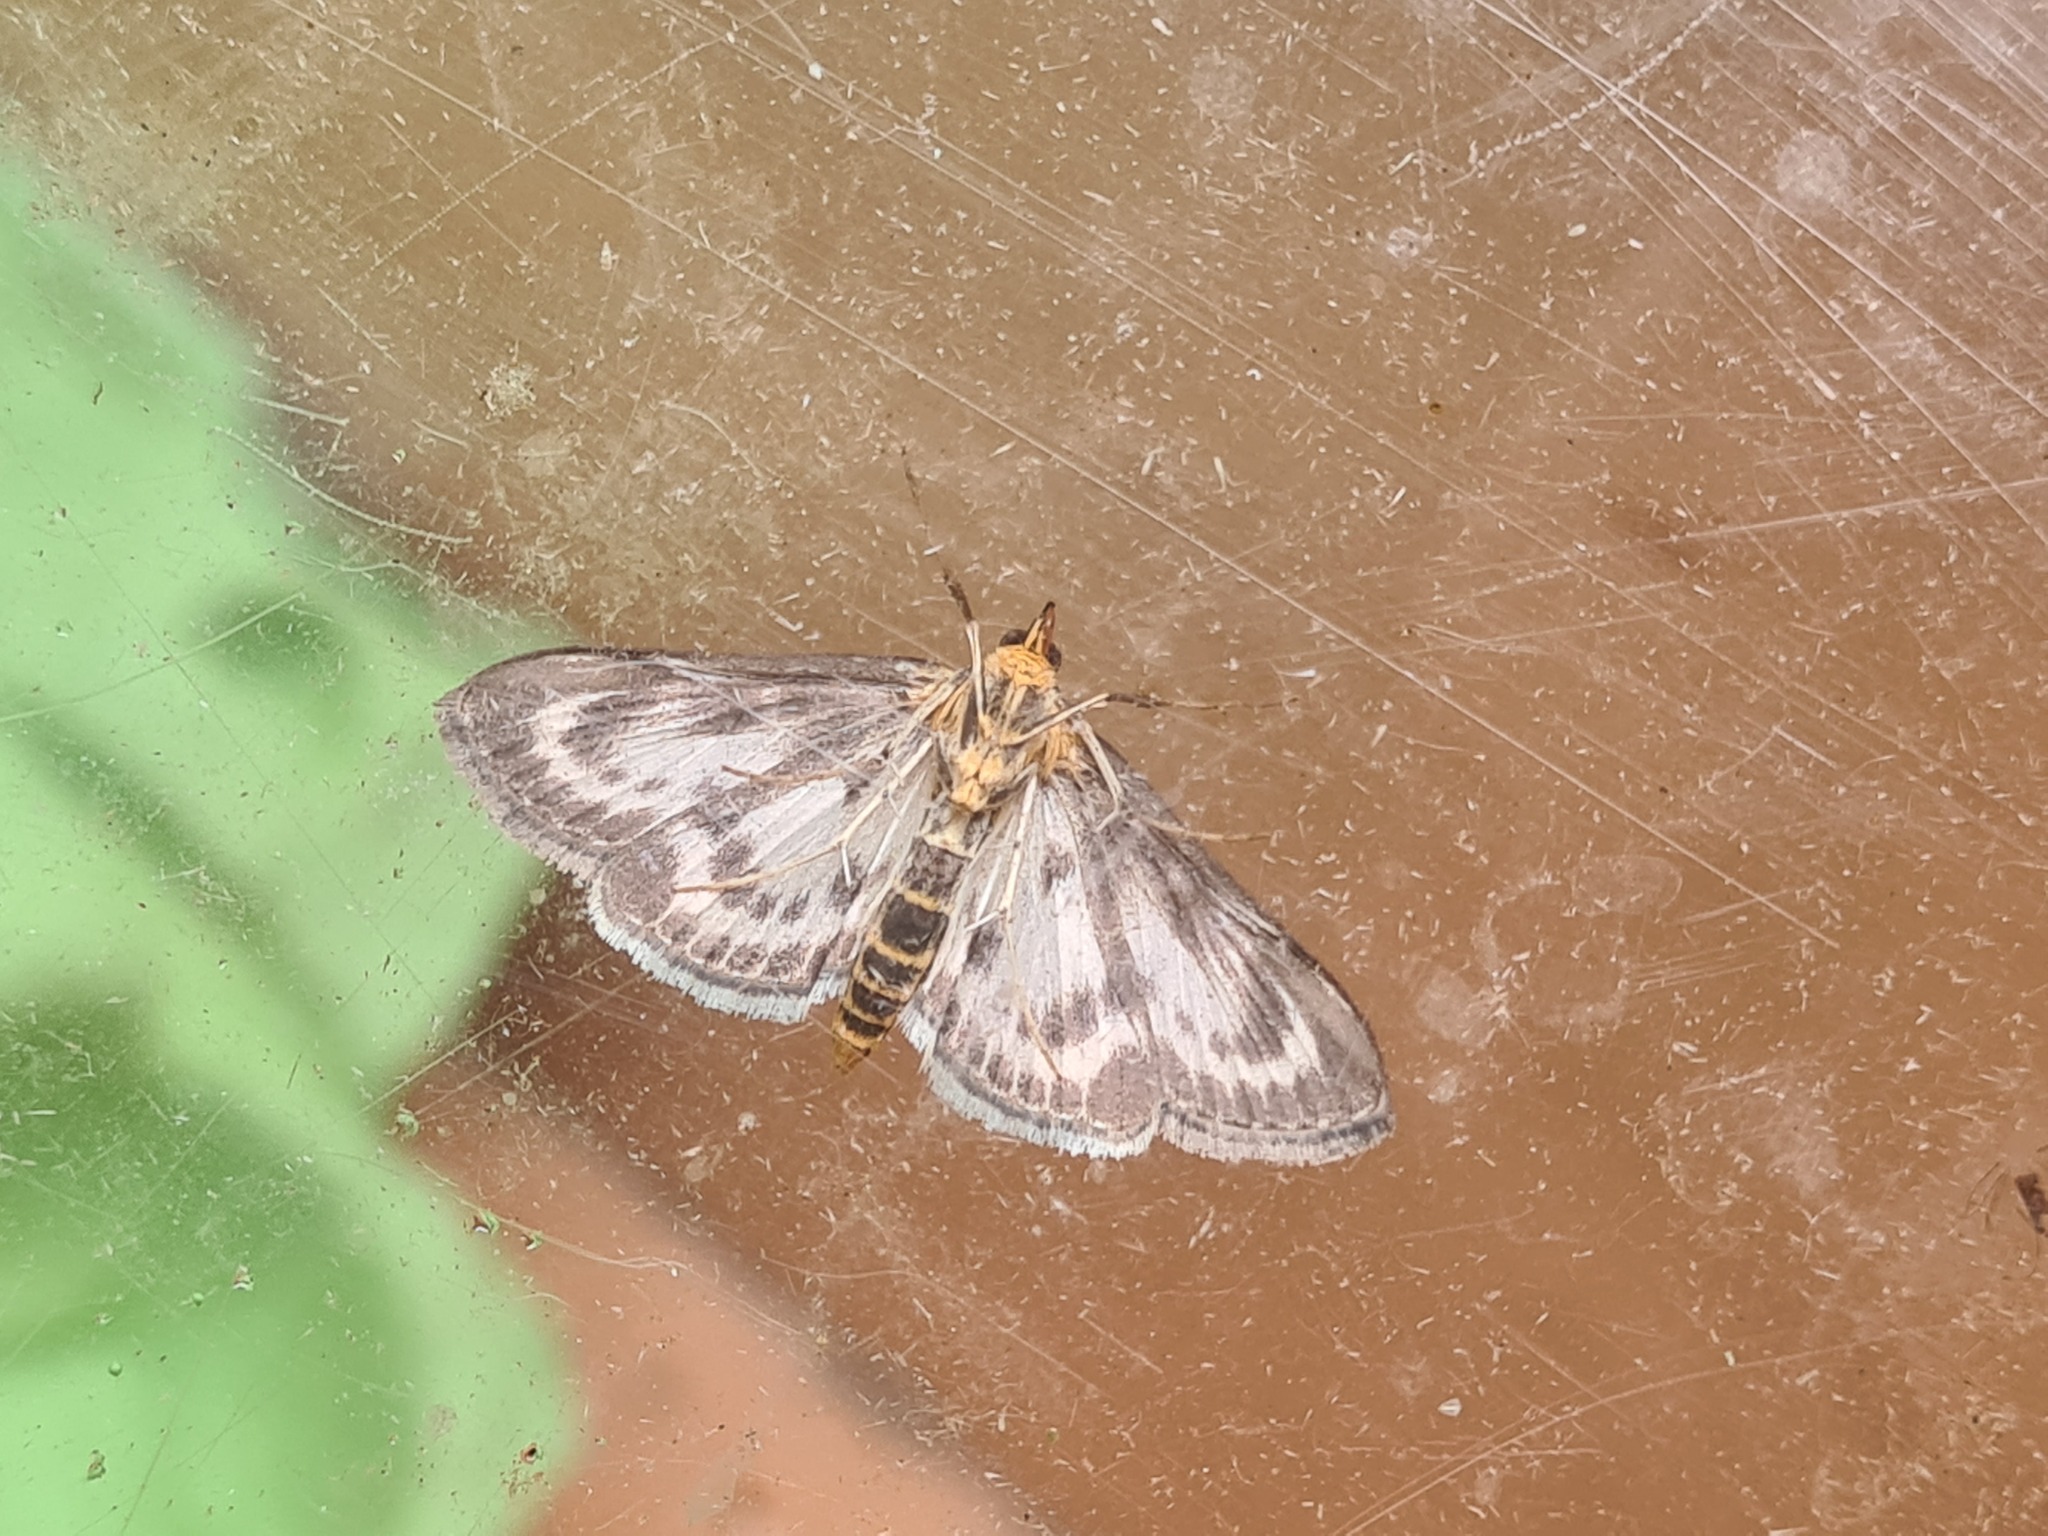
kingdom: Animalia
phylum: Arthropoda
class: Insecta
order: Lepidoptera
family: Crambidae
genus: Anania
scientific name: Anania hortulata
